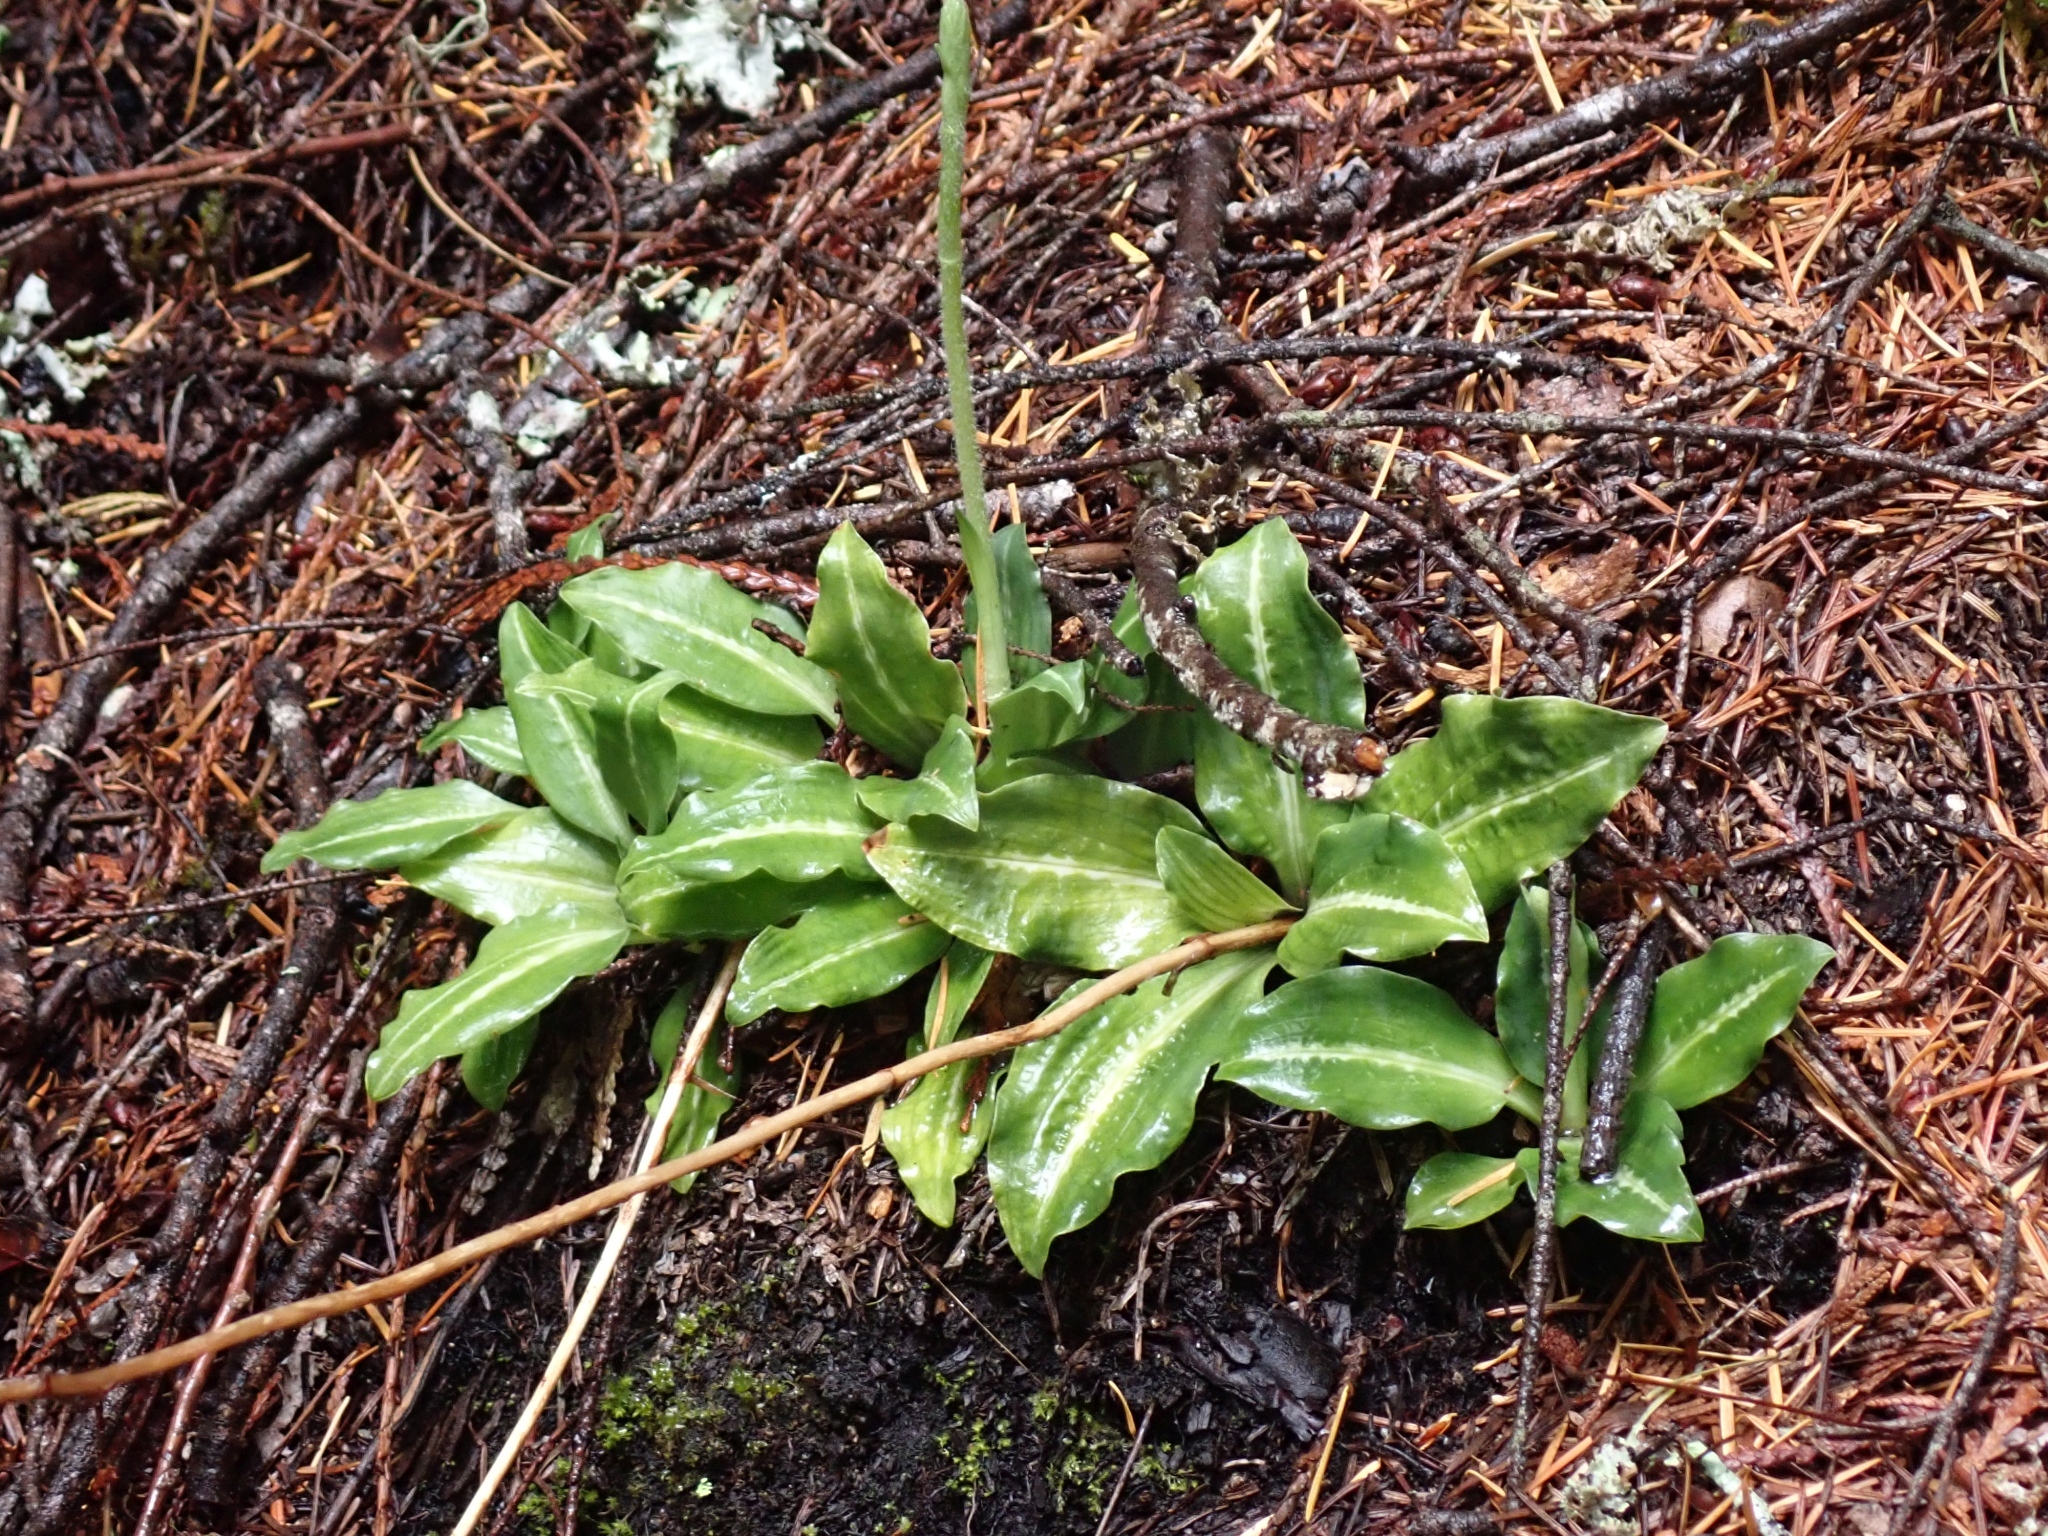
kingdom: Plantae
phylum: Tracheophyta
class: Liliopsida
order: Asparagales
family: Orchidaceae
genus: Goodyera
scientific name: Goodyera oblongifolia
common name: Giant rattlesnake-plantain
